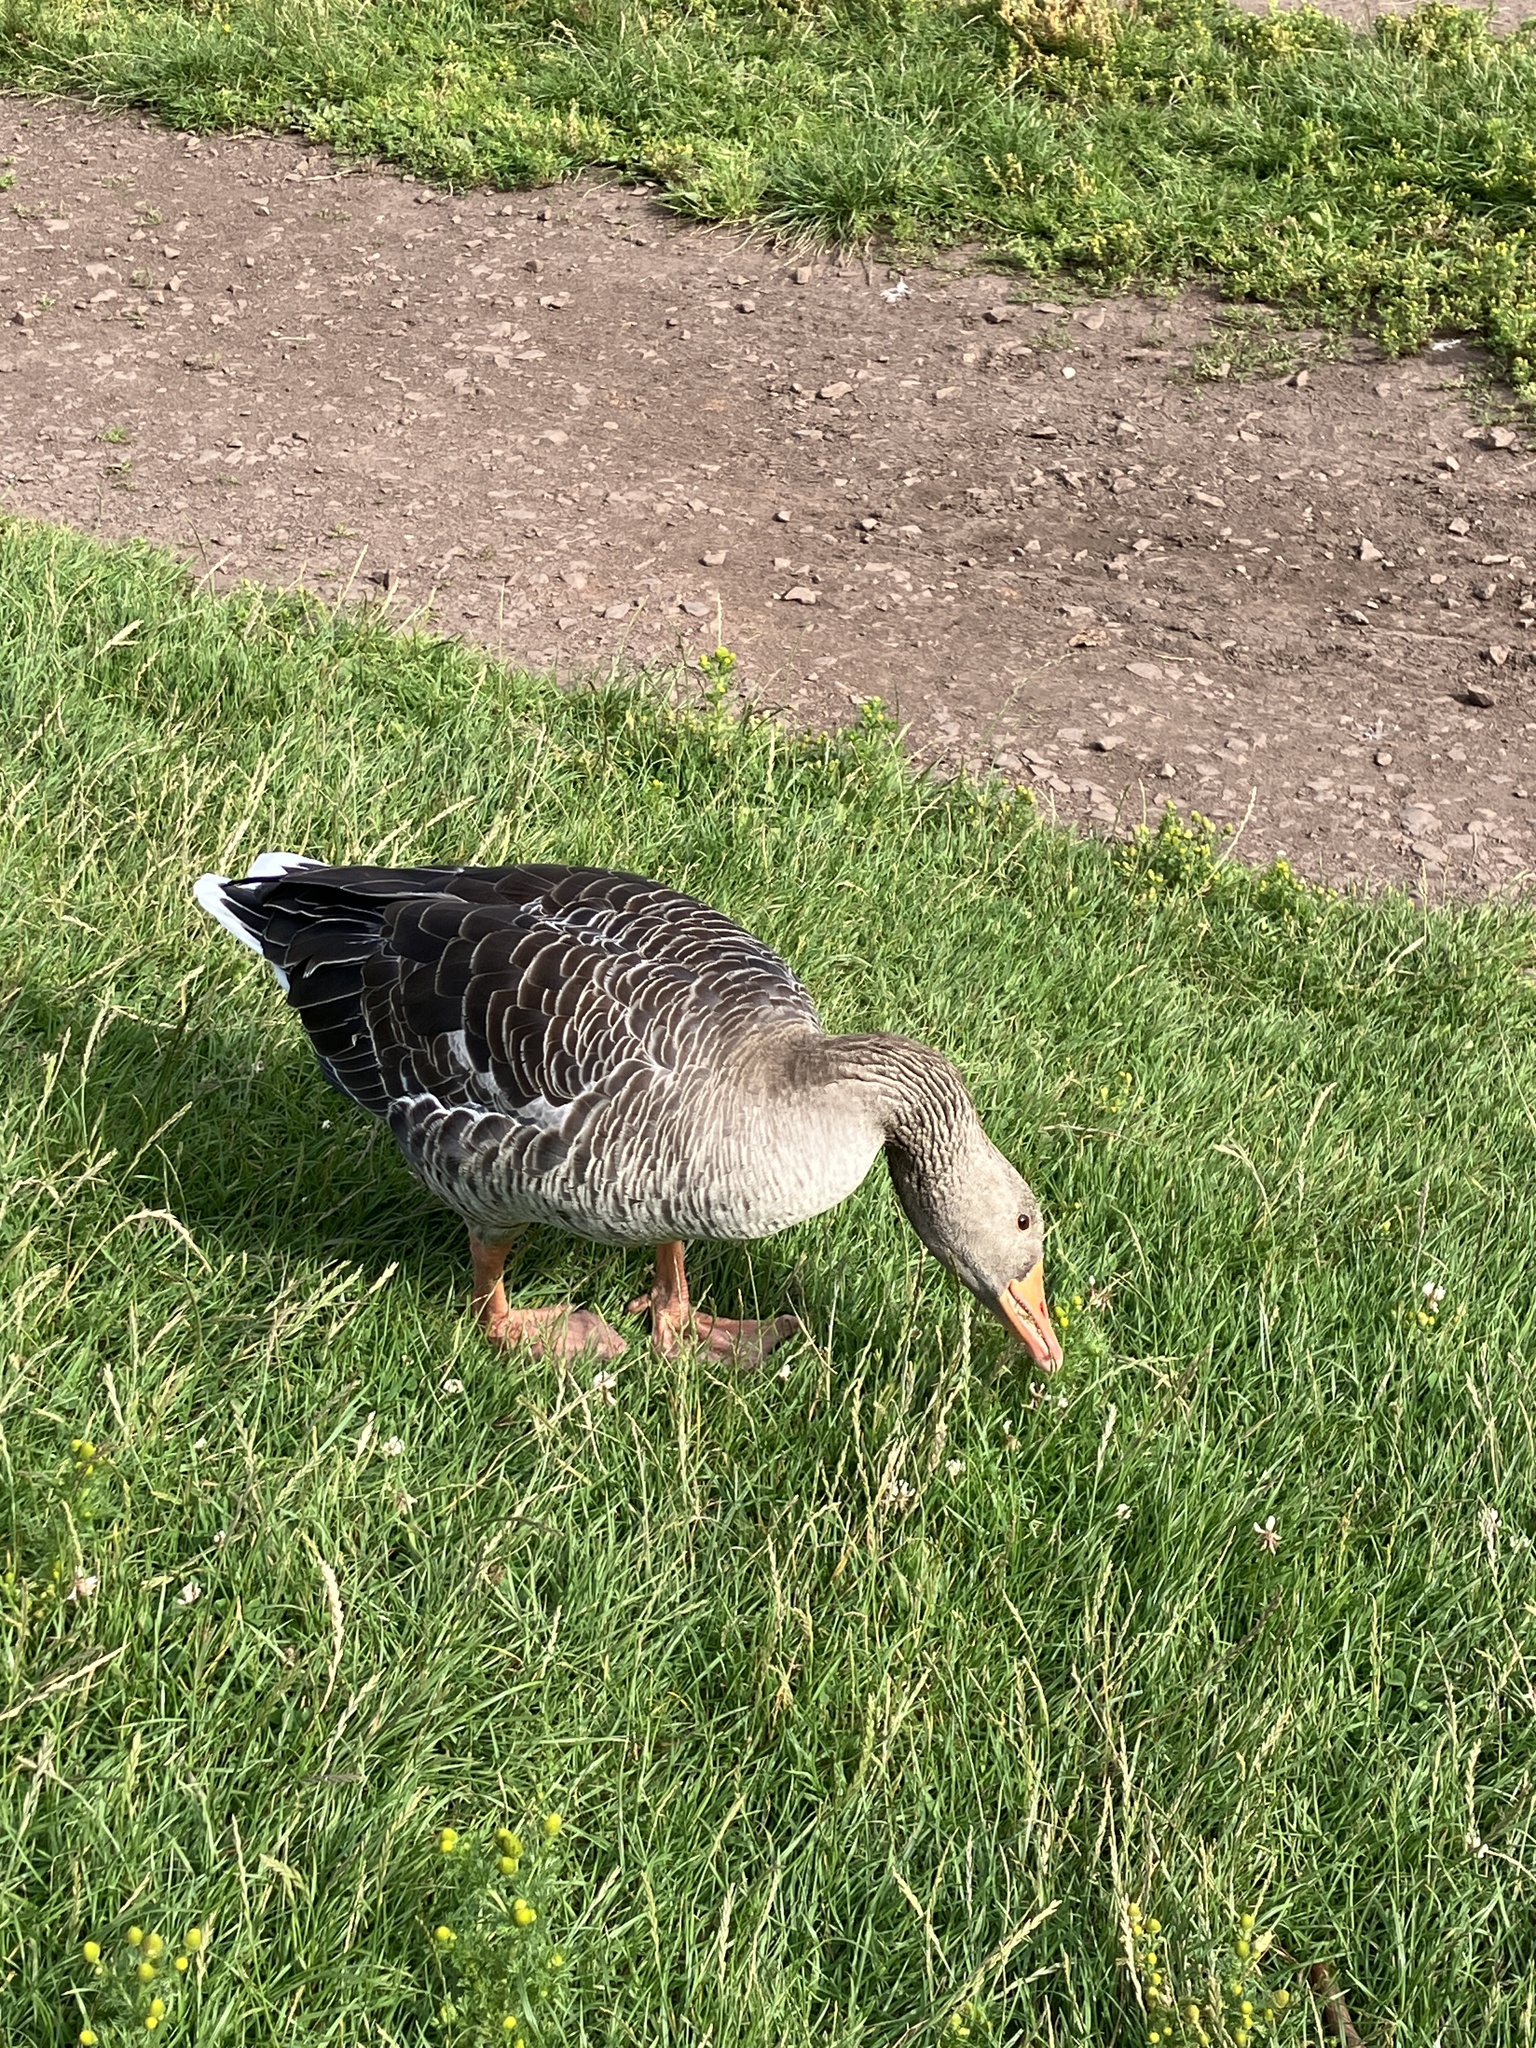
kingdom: Animalia
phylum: Chordata
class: Aves
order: Anseriformes
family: Anatidae
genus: Anser
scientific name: Anser anser
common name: Greylag goose
